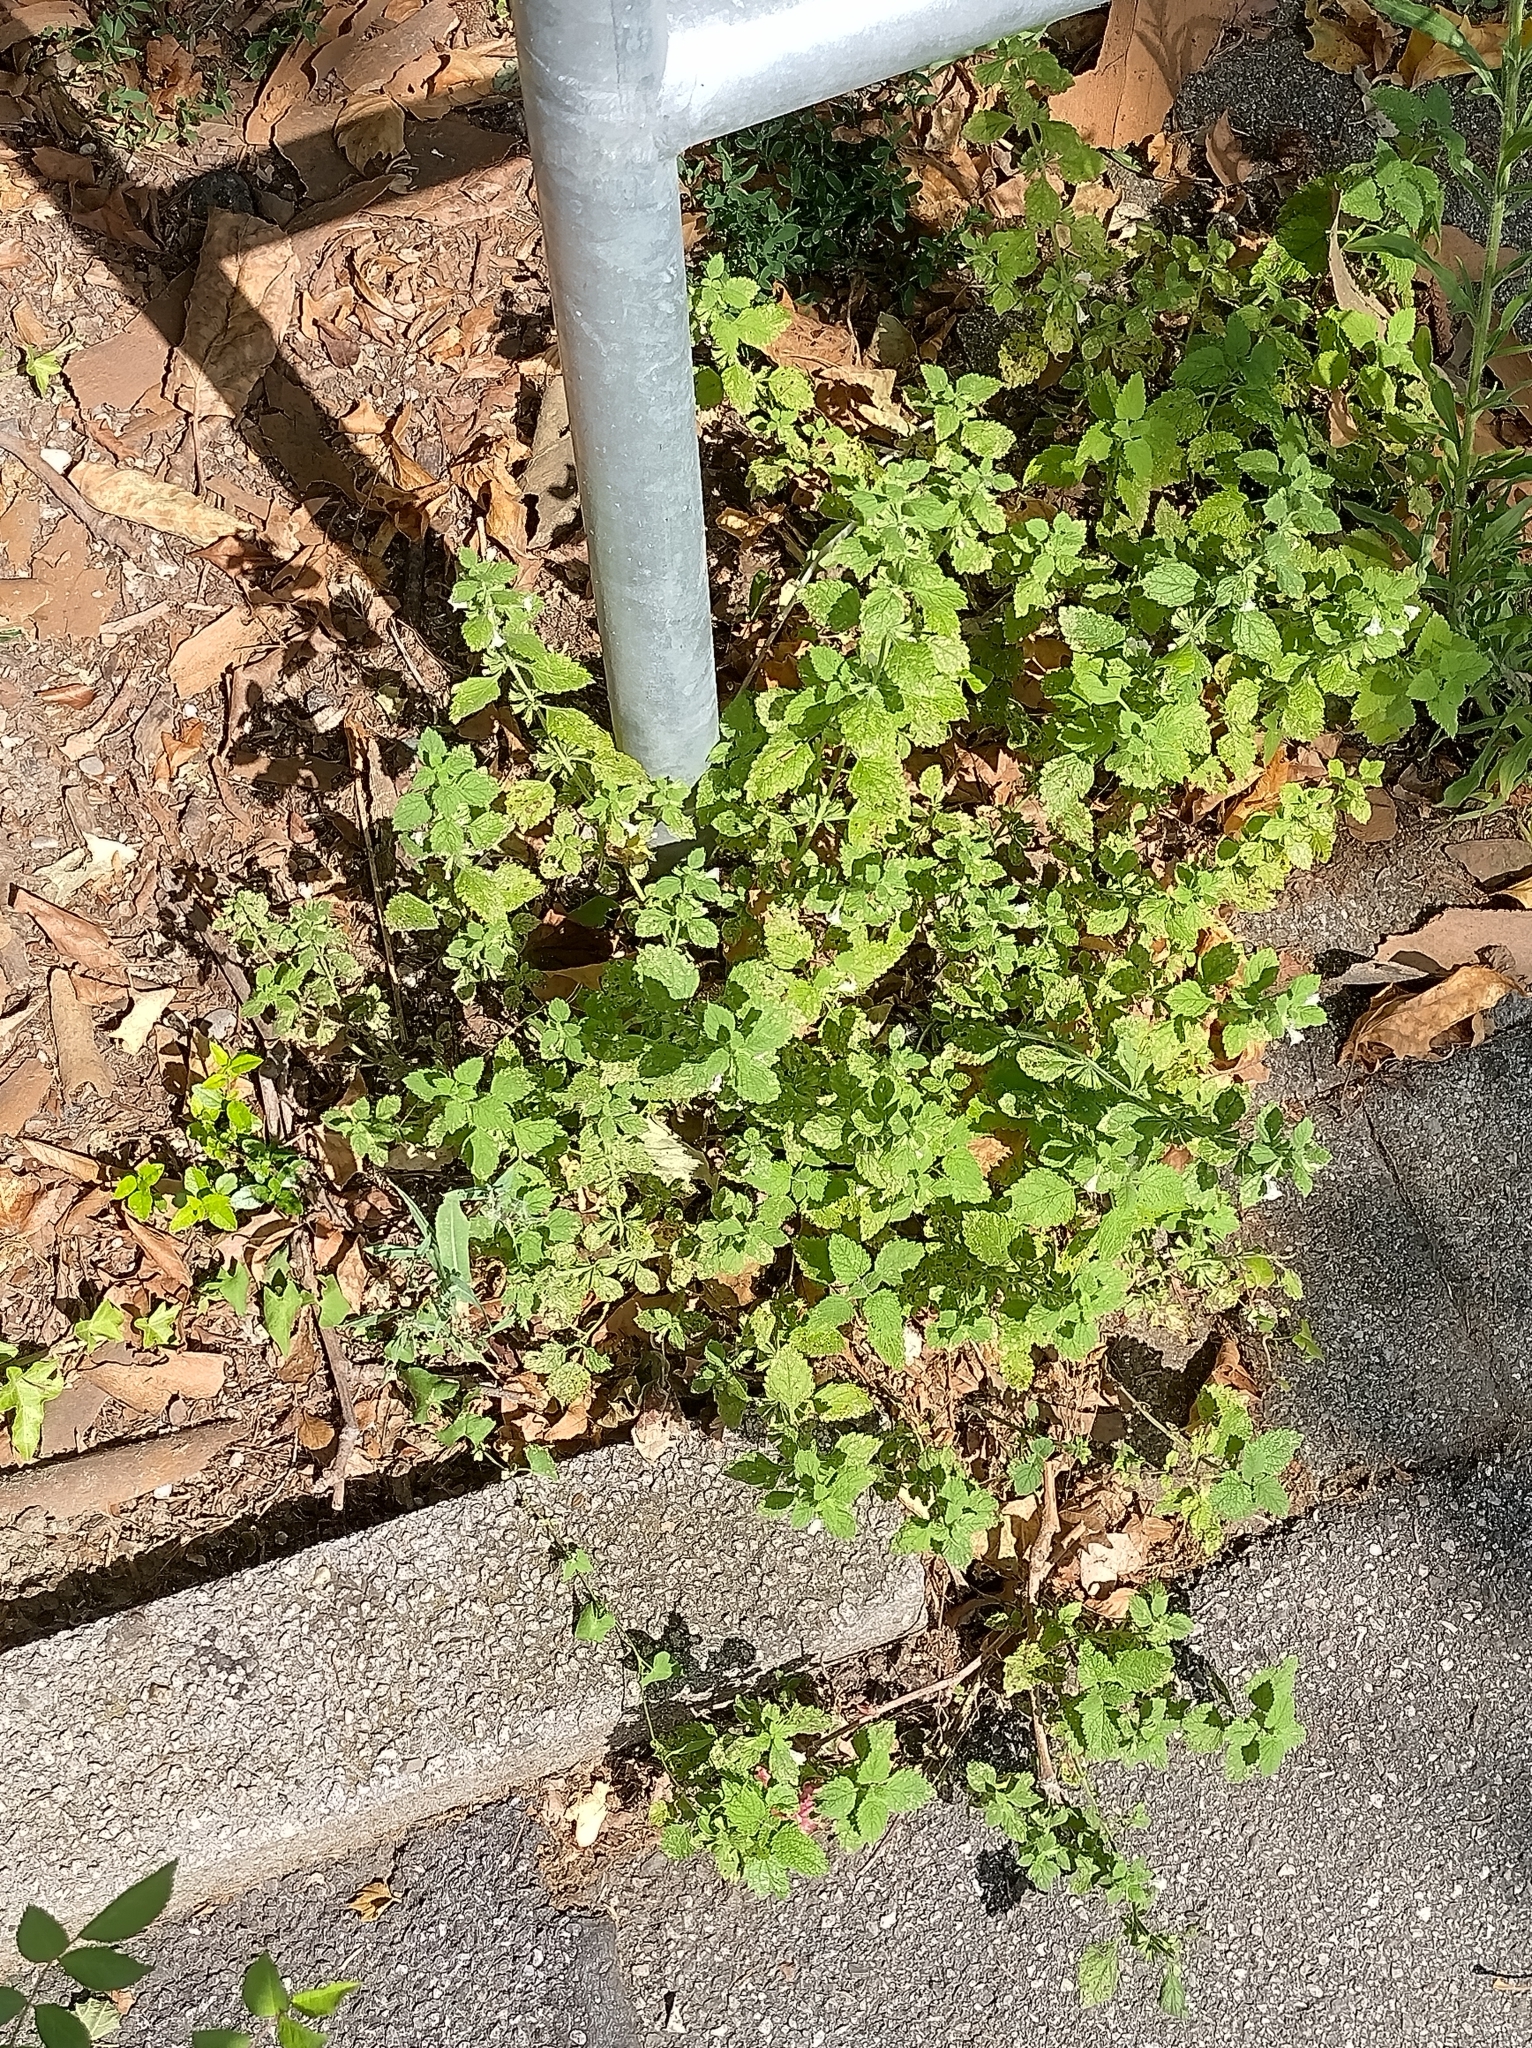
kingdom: Plantae
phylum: Tracheophyta
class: Magnoliopsida
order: Lamiales
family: Lamiaceae
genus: Melissa
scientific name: Melissa officinalis
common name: Balm
